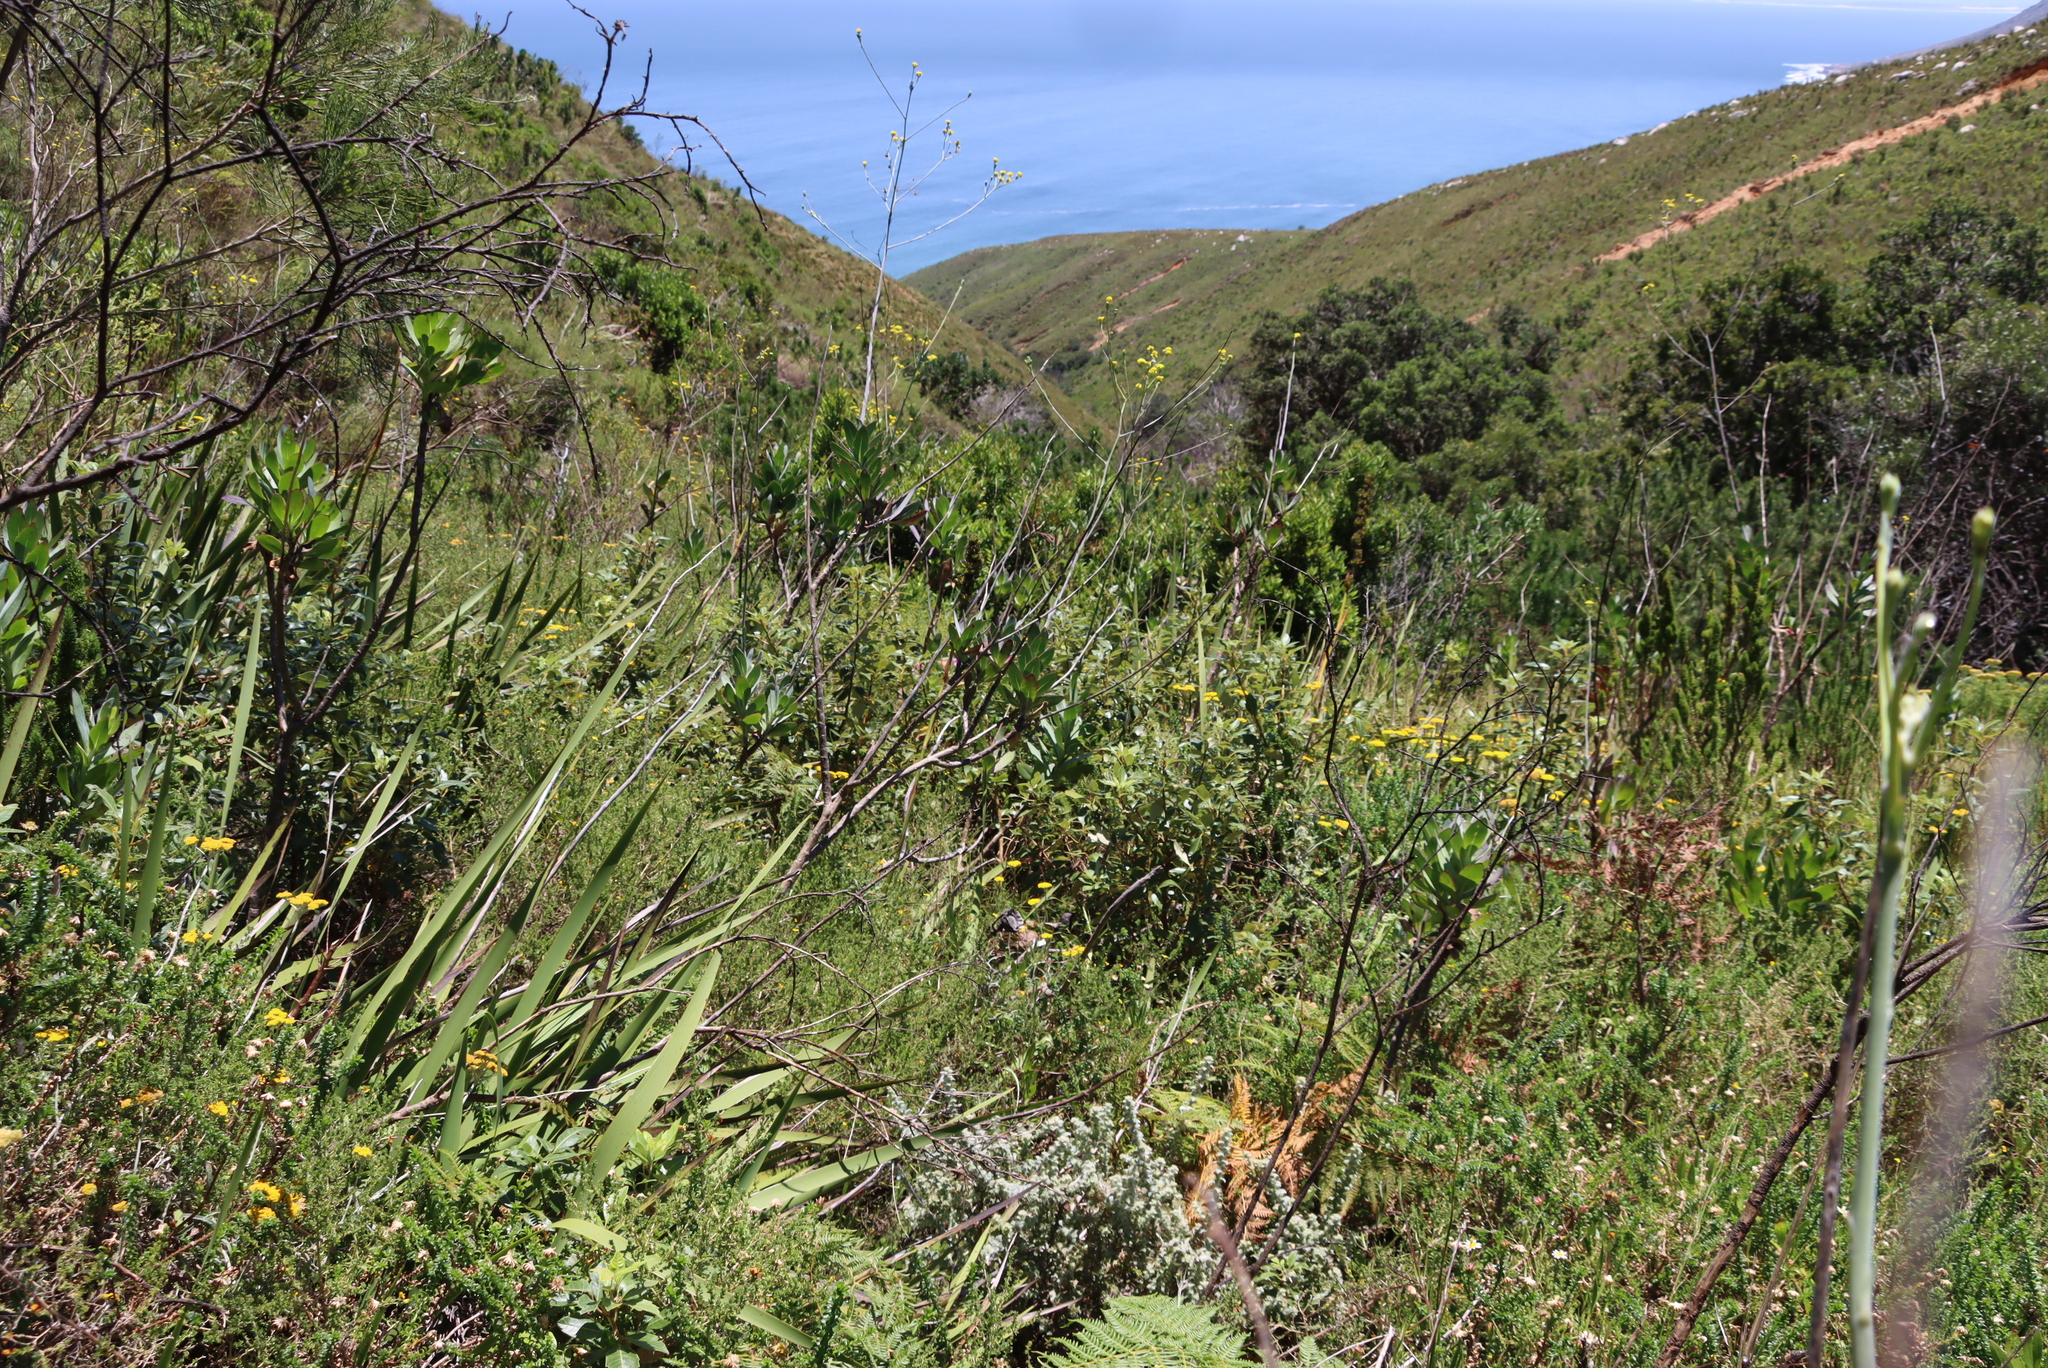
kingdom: Plantae
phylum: Tracheophyta
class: Magnoliopsida
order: Asterales
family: Asteraceae
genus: Othonna
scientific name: Othonna quinquedentata
